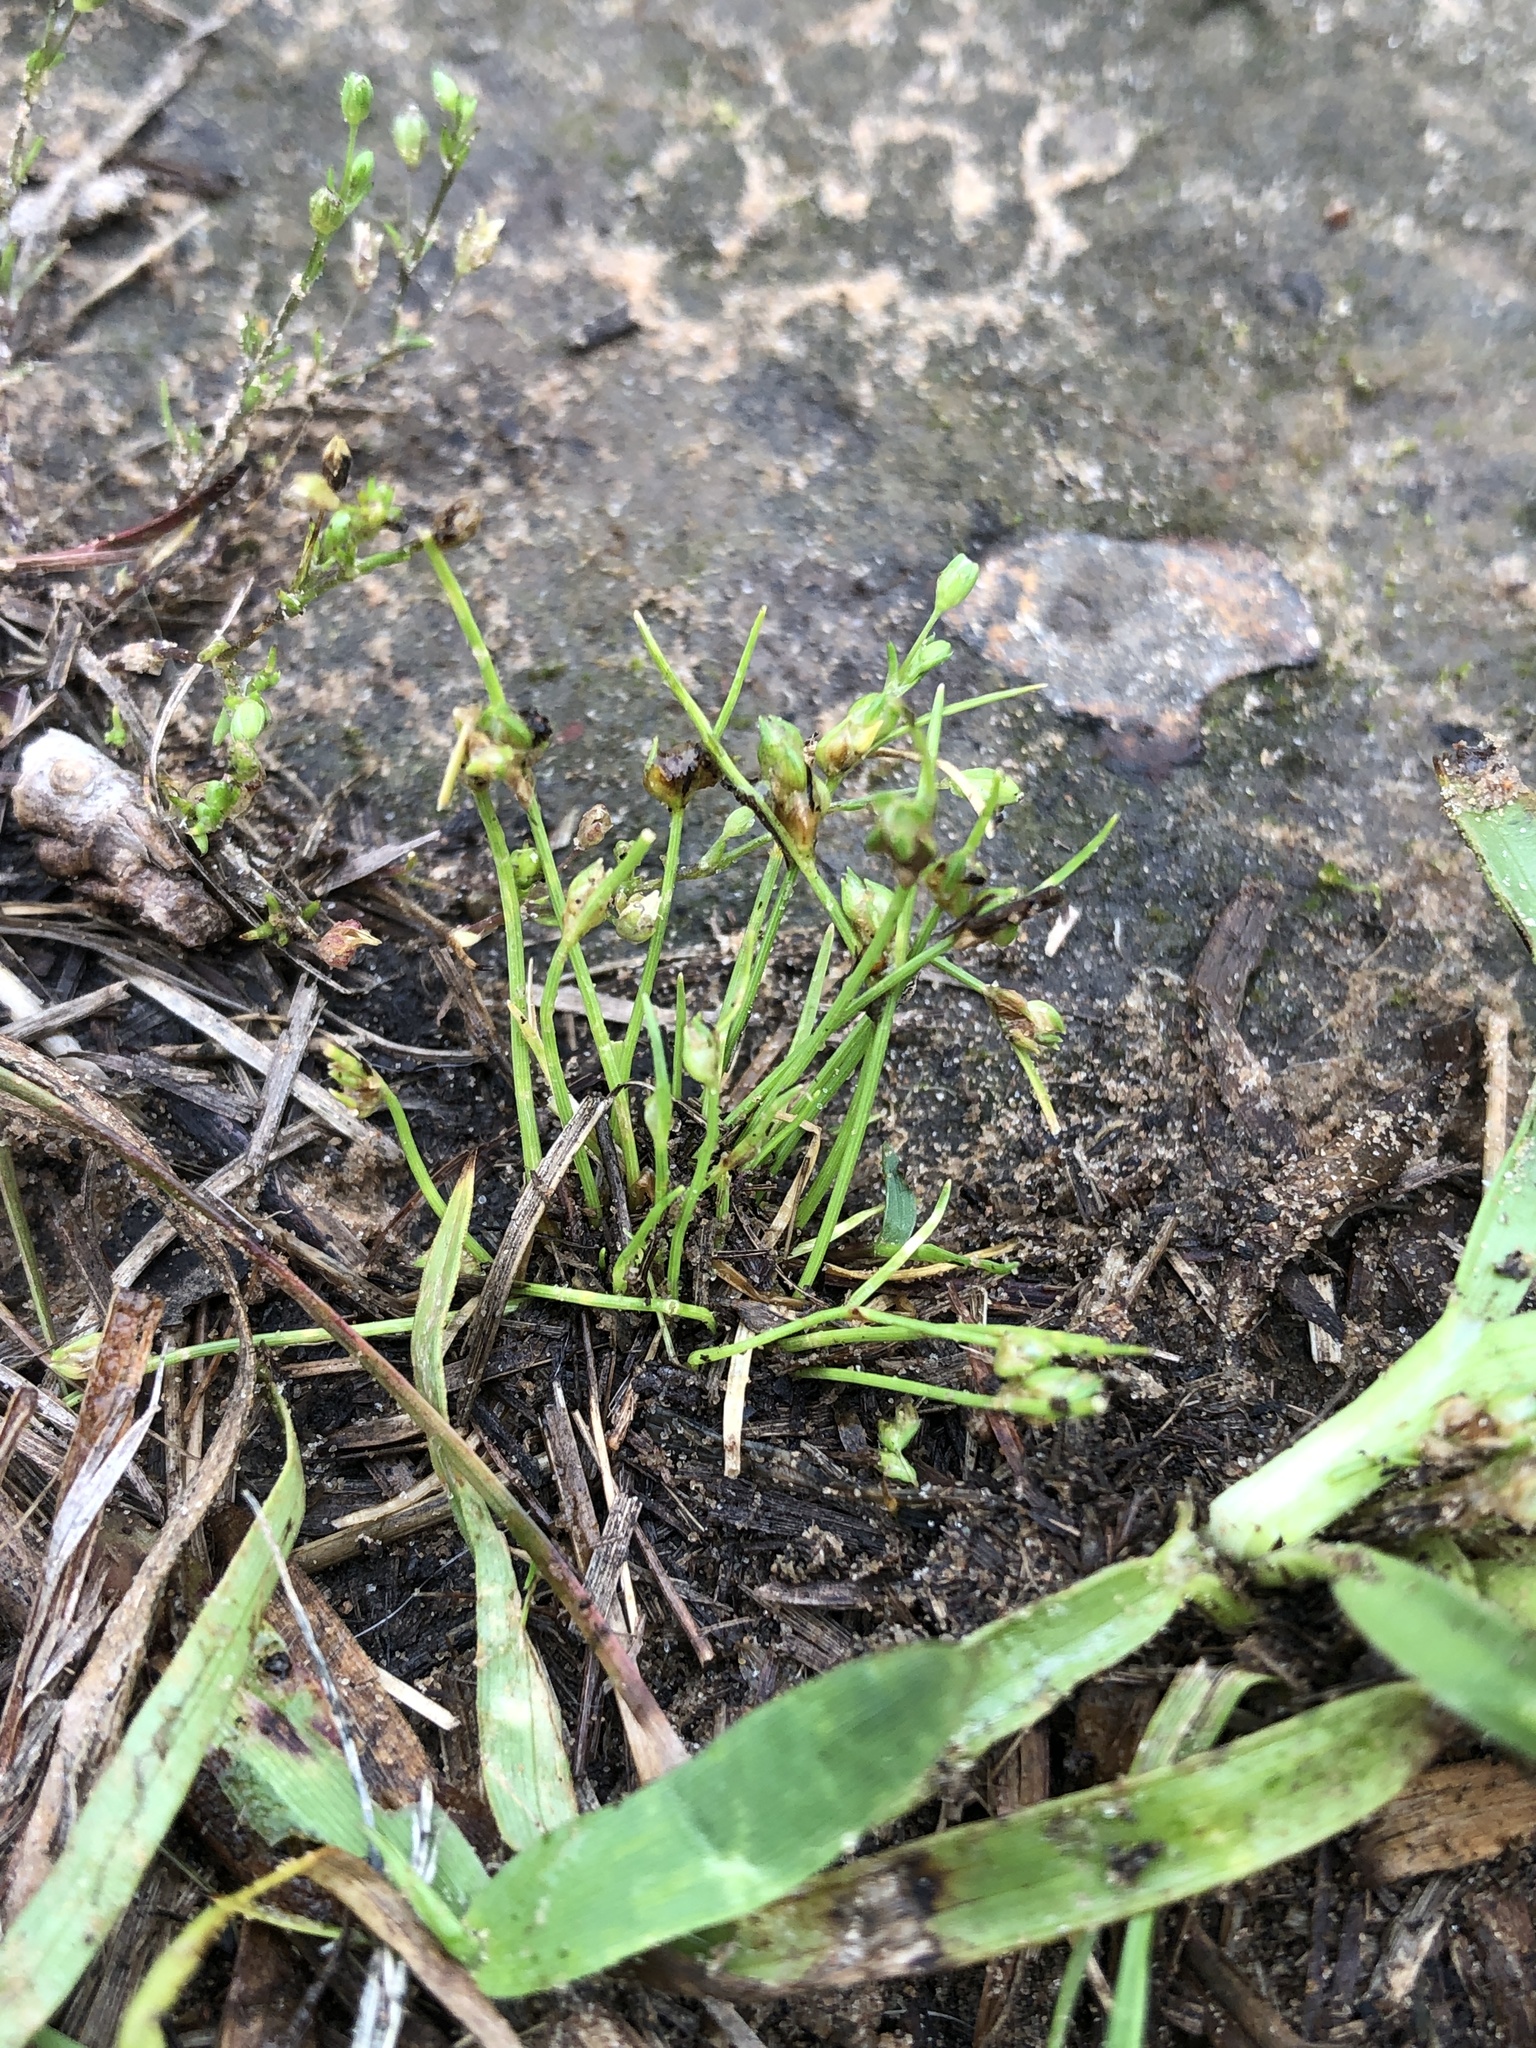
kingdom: Plantae
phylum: Tracheophyta
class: Liliopsida
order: Poales
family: Cyperaceae
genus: Isolepis
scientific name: Isolepis carinata
